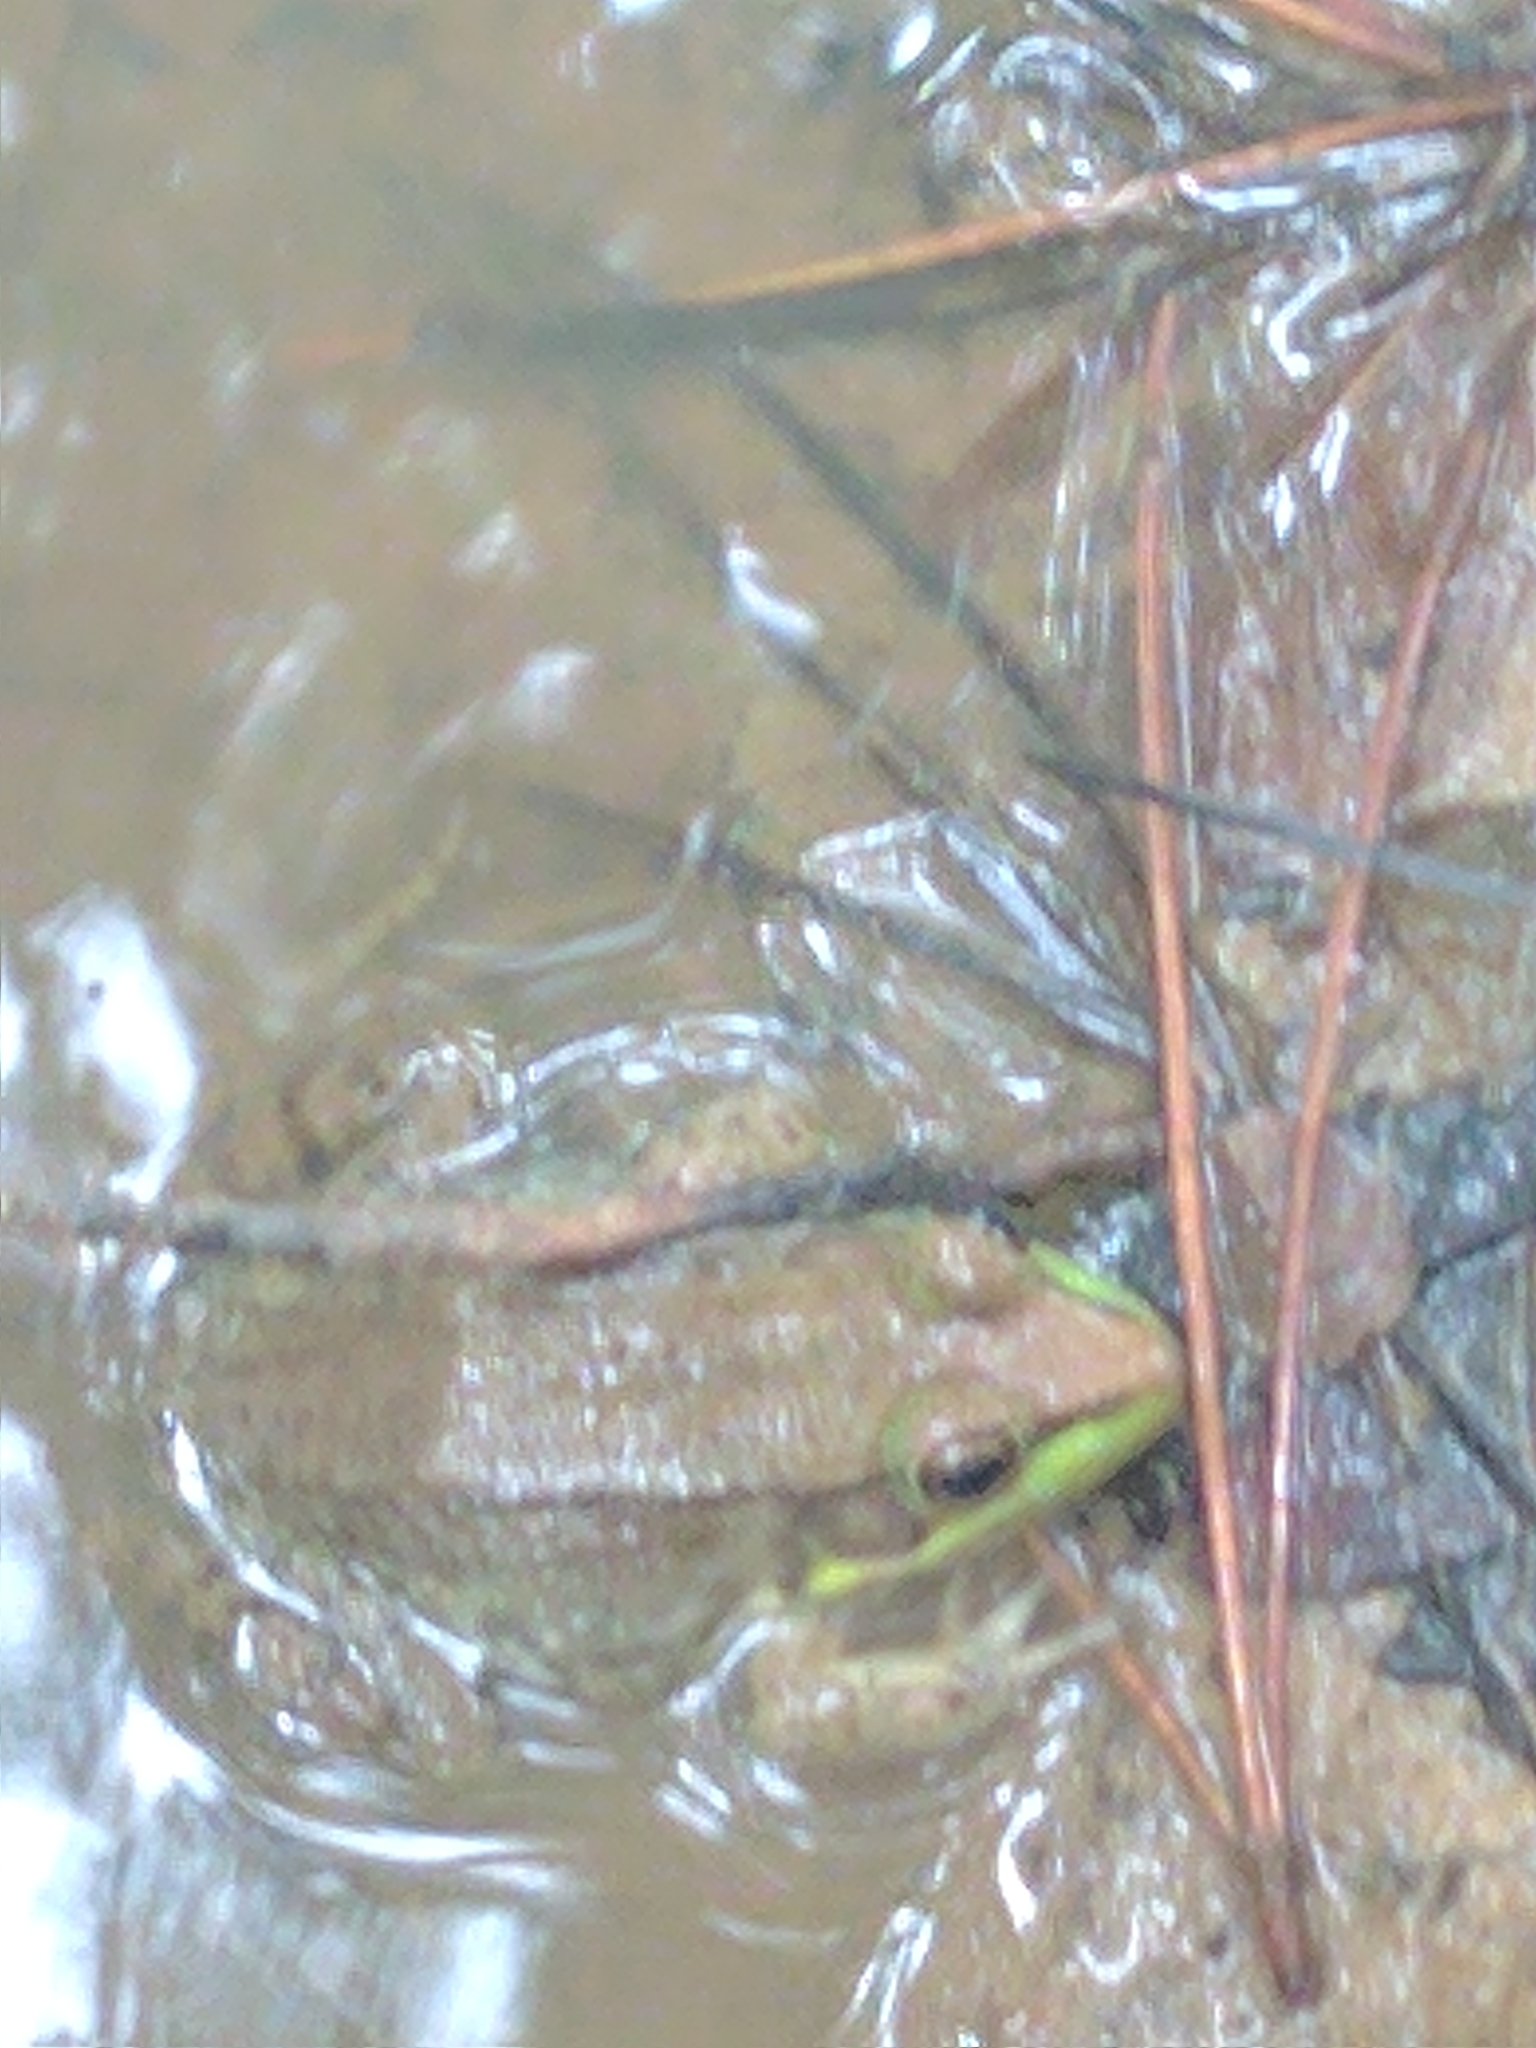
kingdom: Animalia
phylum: Chordata
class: Amphibia
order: Anura
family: Ranidae
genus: Lithobates
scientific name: Lithobates clamitans
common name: Green frog
